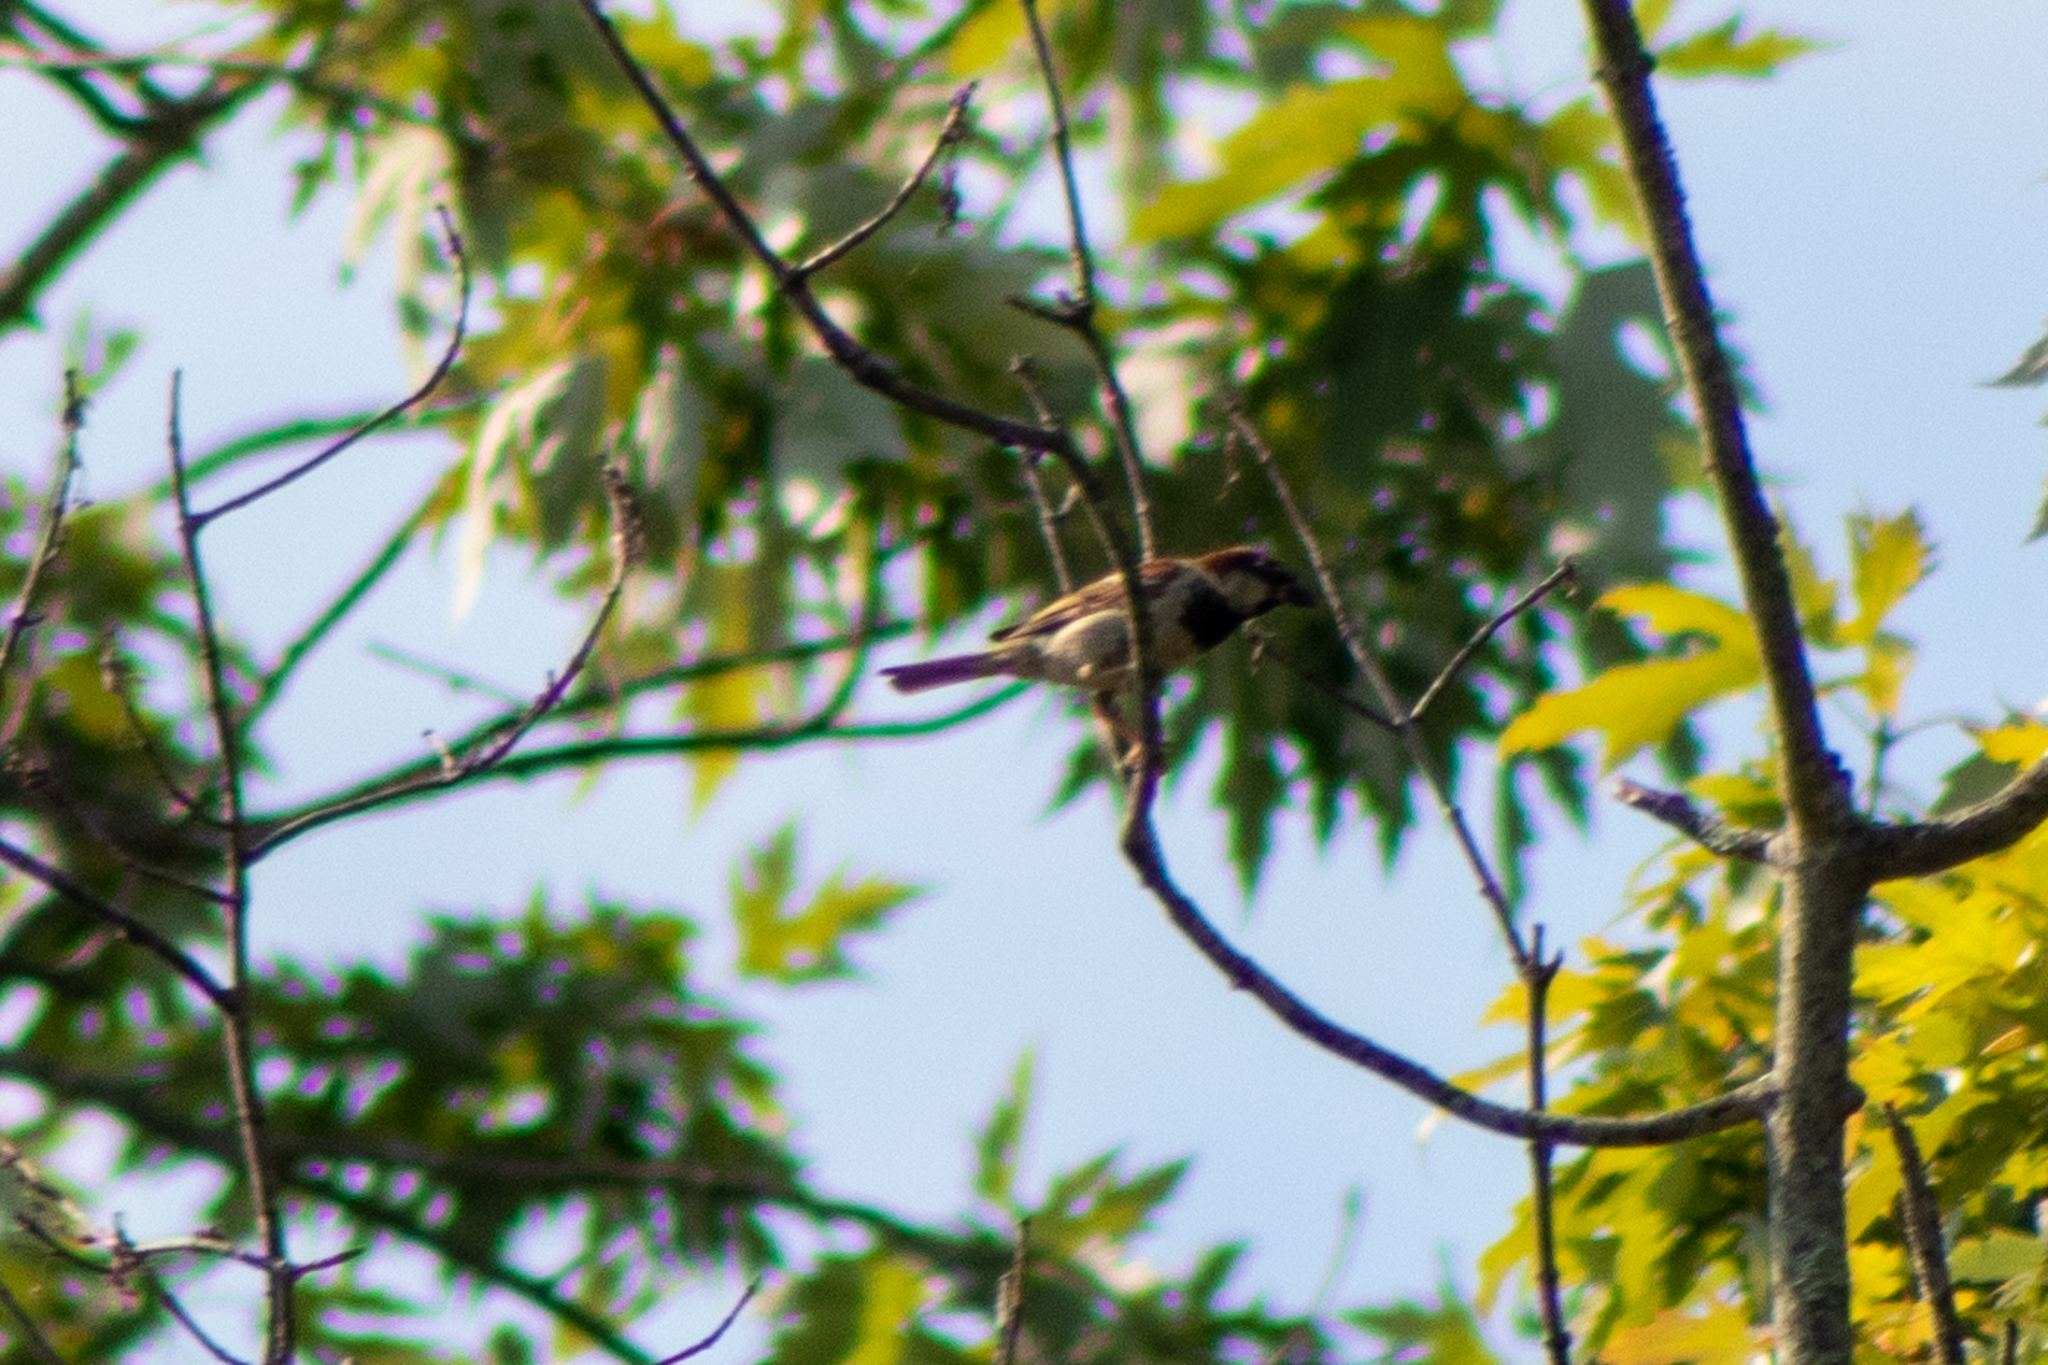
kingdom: Animalia
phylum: Chordata
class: Aves
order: Passeriformes
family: Passeridae
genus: Passer
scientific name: Passer domesticus
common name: House sparrow
